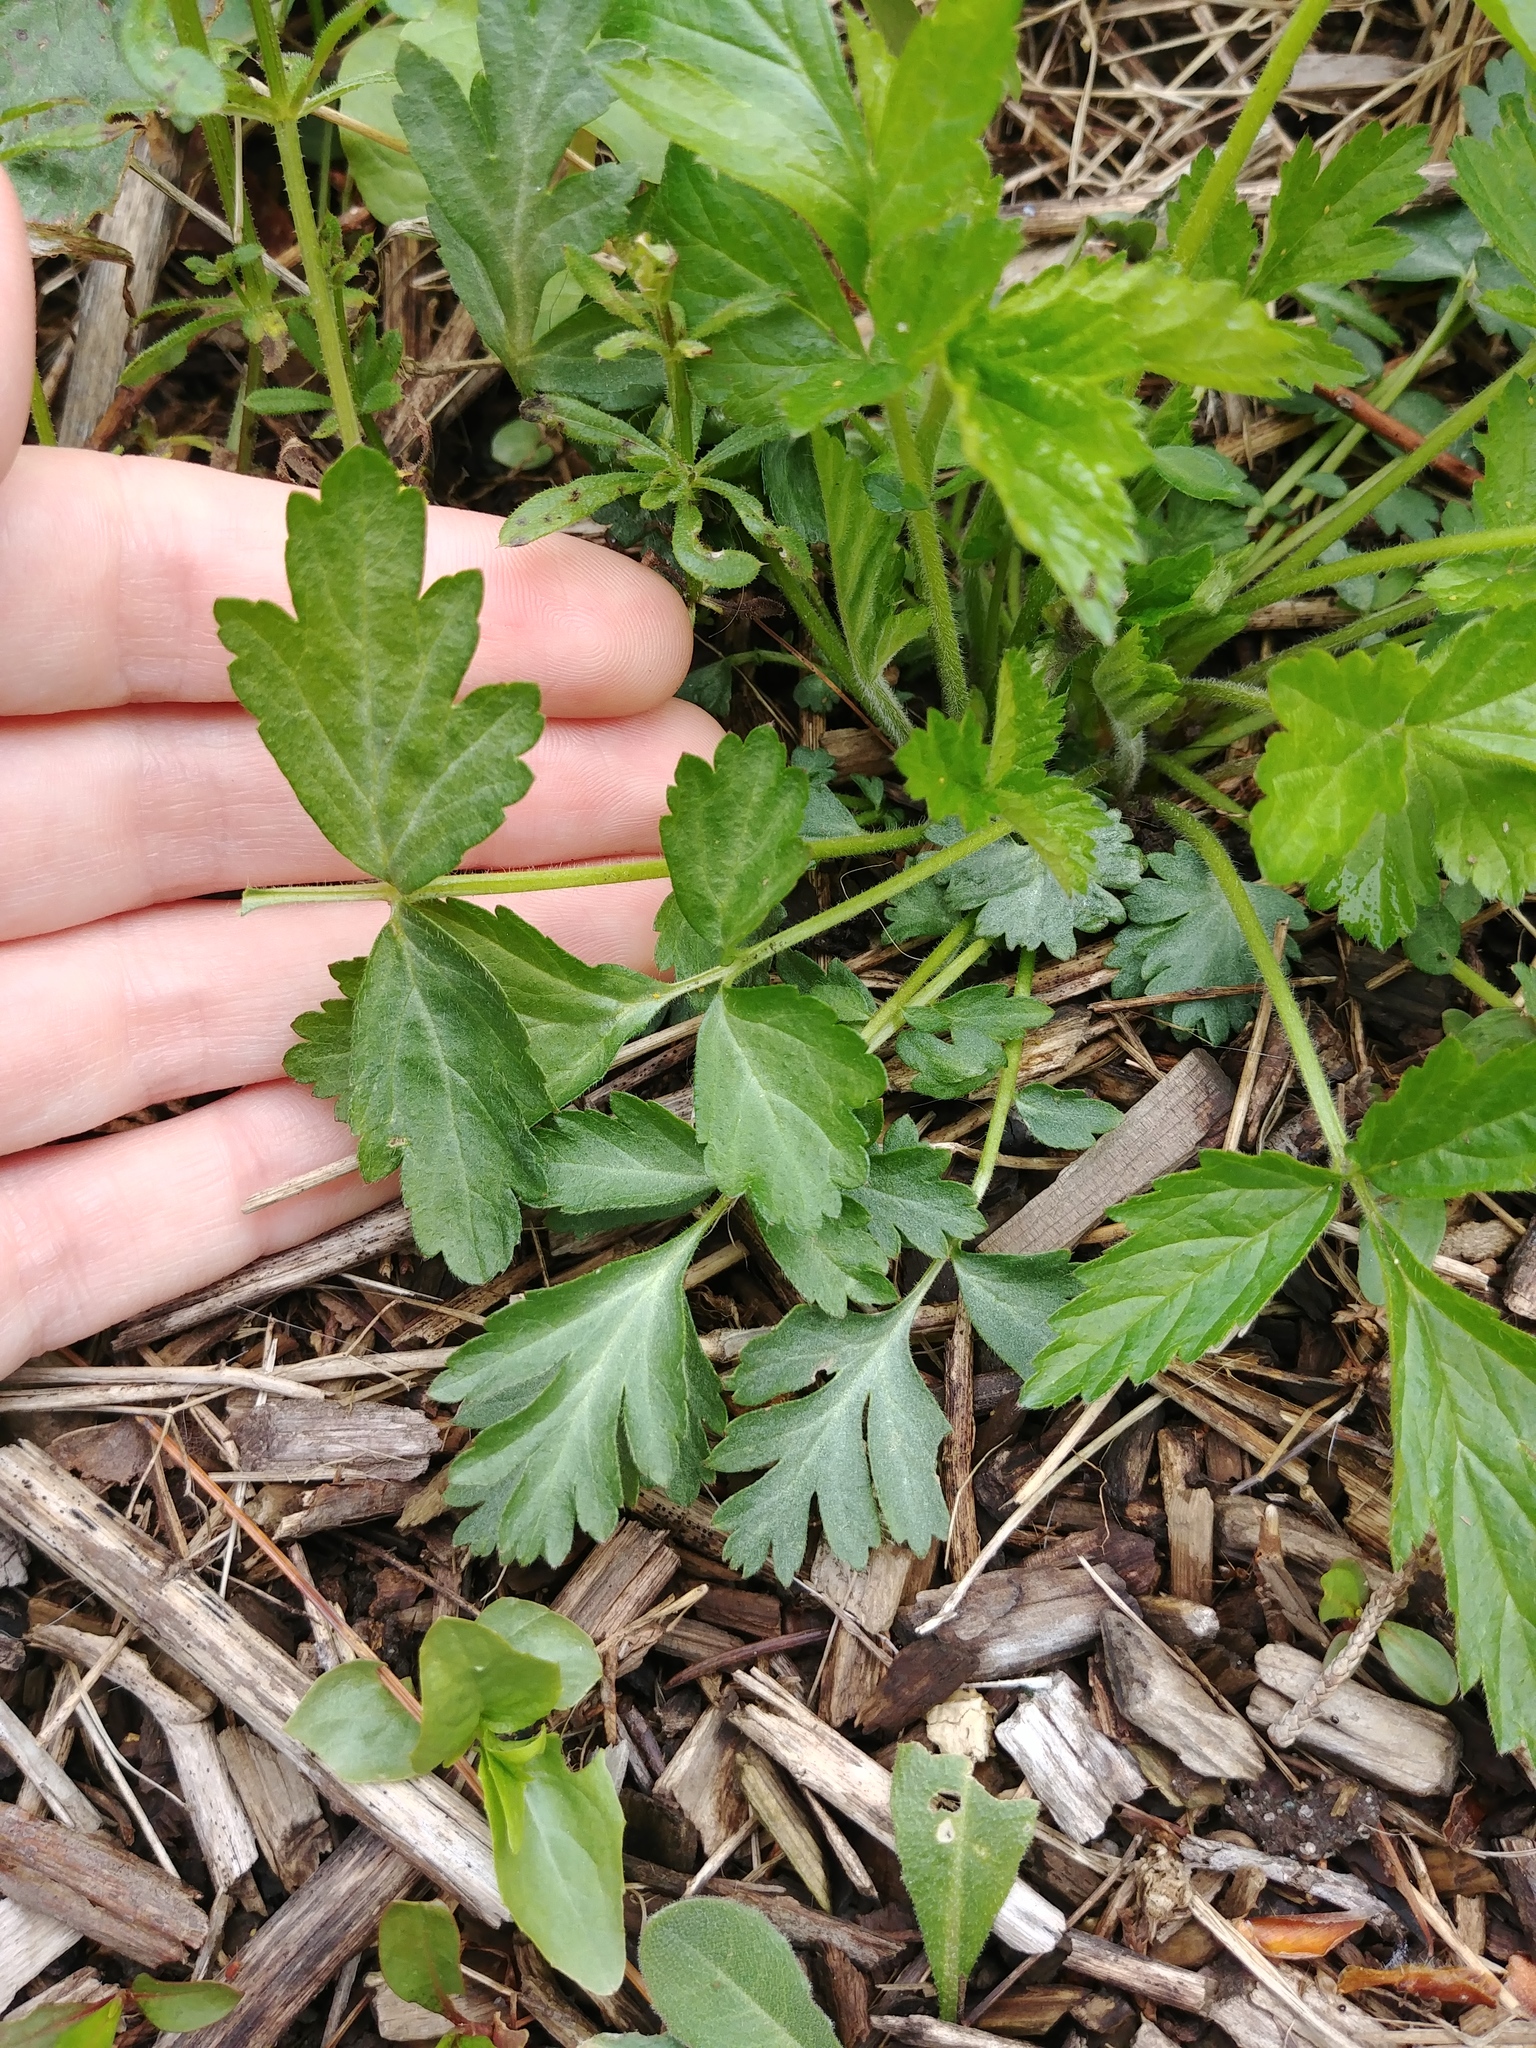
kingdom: Plantae
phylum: Tracheophyta
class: Magnoliopsida
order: Rosales
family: Rosaceae
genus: Geum
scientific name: Geum canadense
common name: White avens
